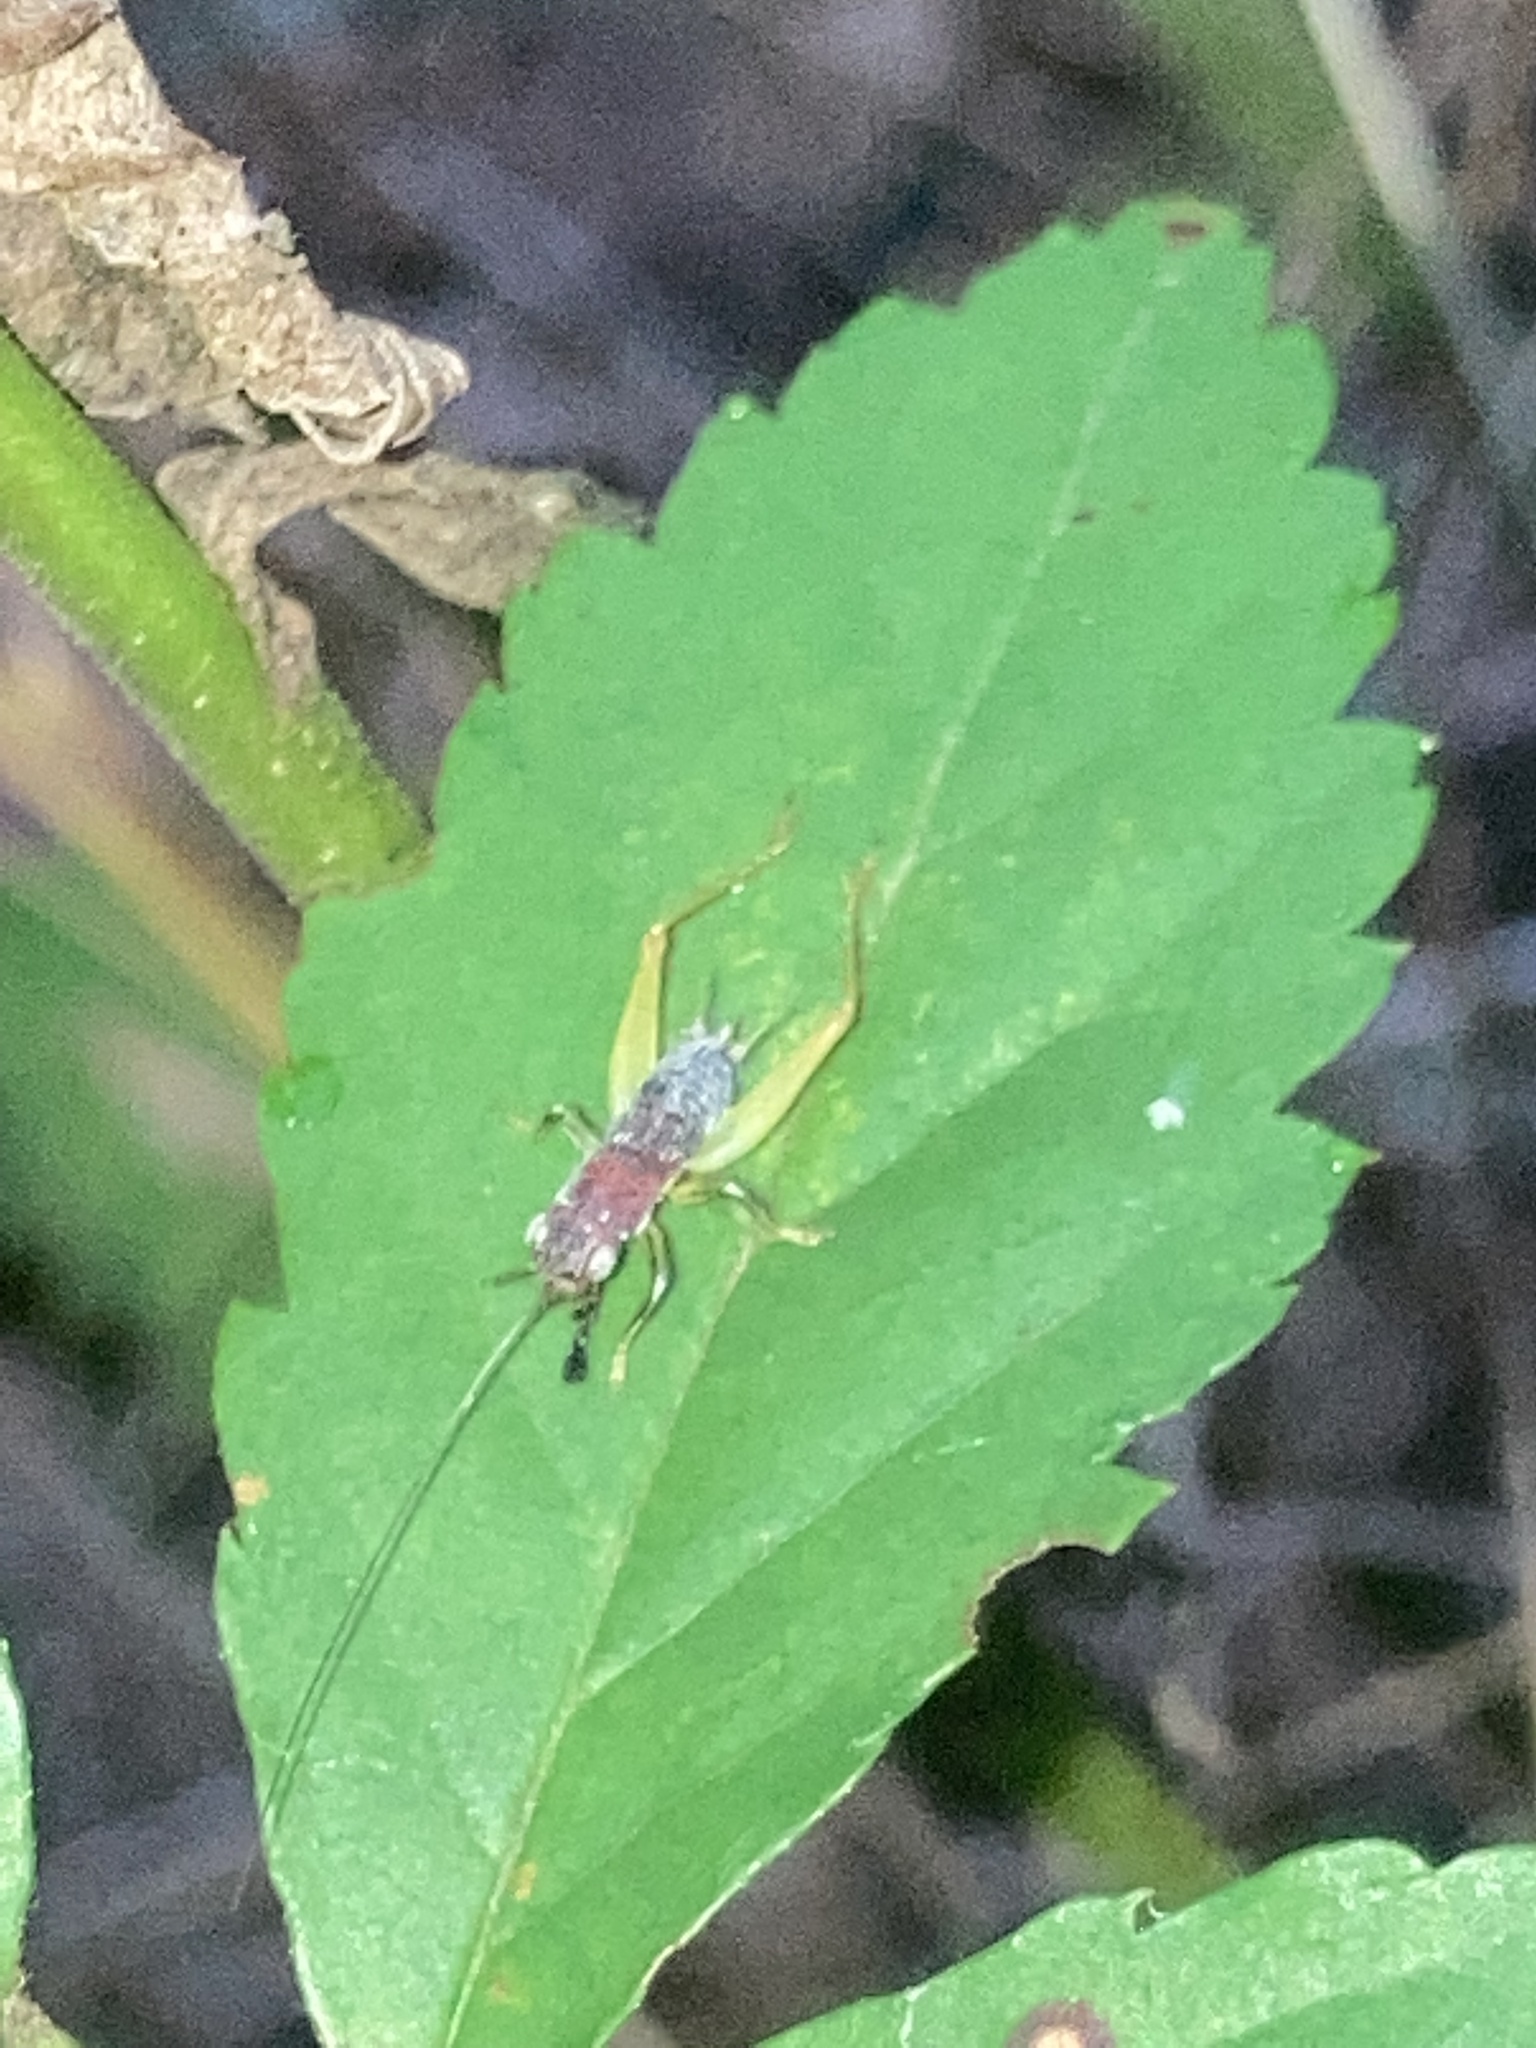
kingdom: Animalia
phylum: Arthropoda
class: Insecta
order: Orthoptera
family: Trigonidiidae
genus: Phyllopalpus
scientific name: Phyllopalpus pulchellus
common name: Handsome trig
